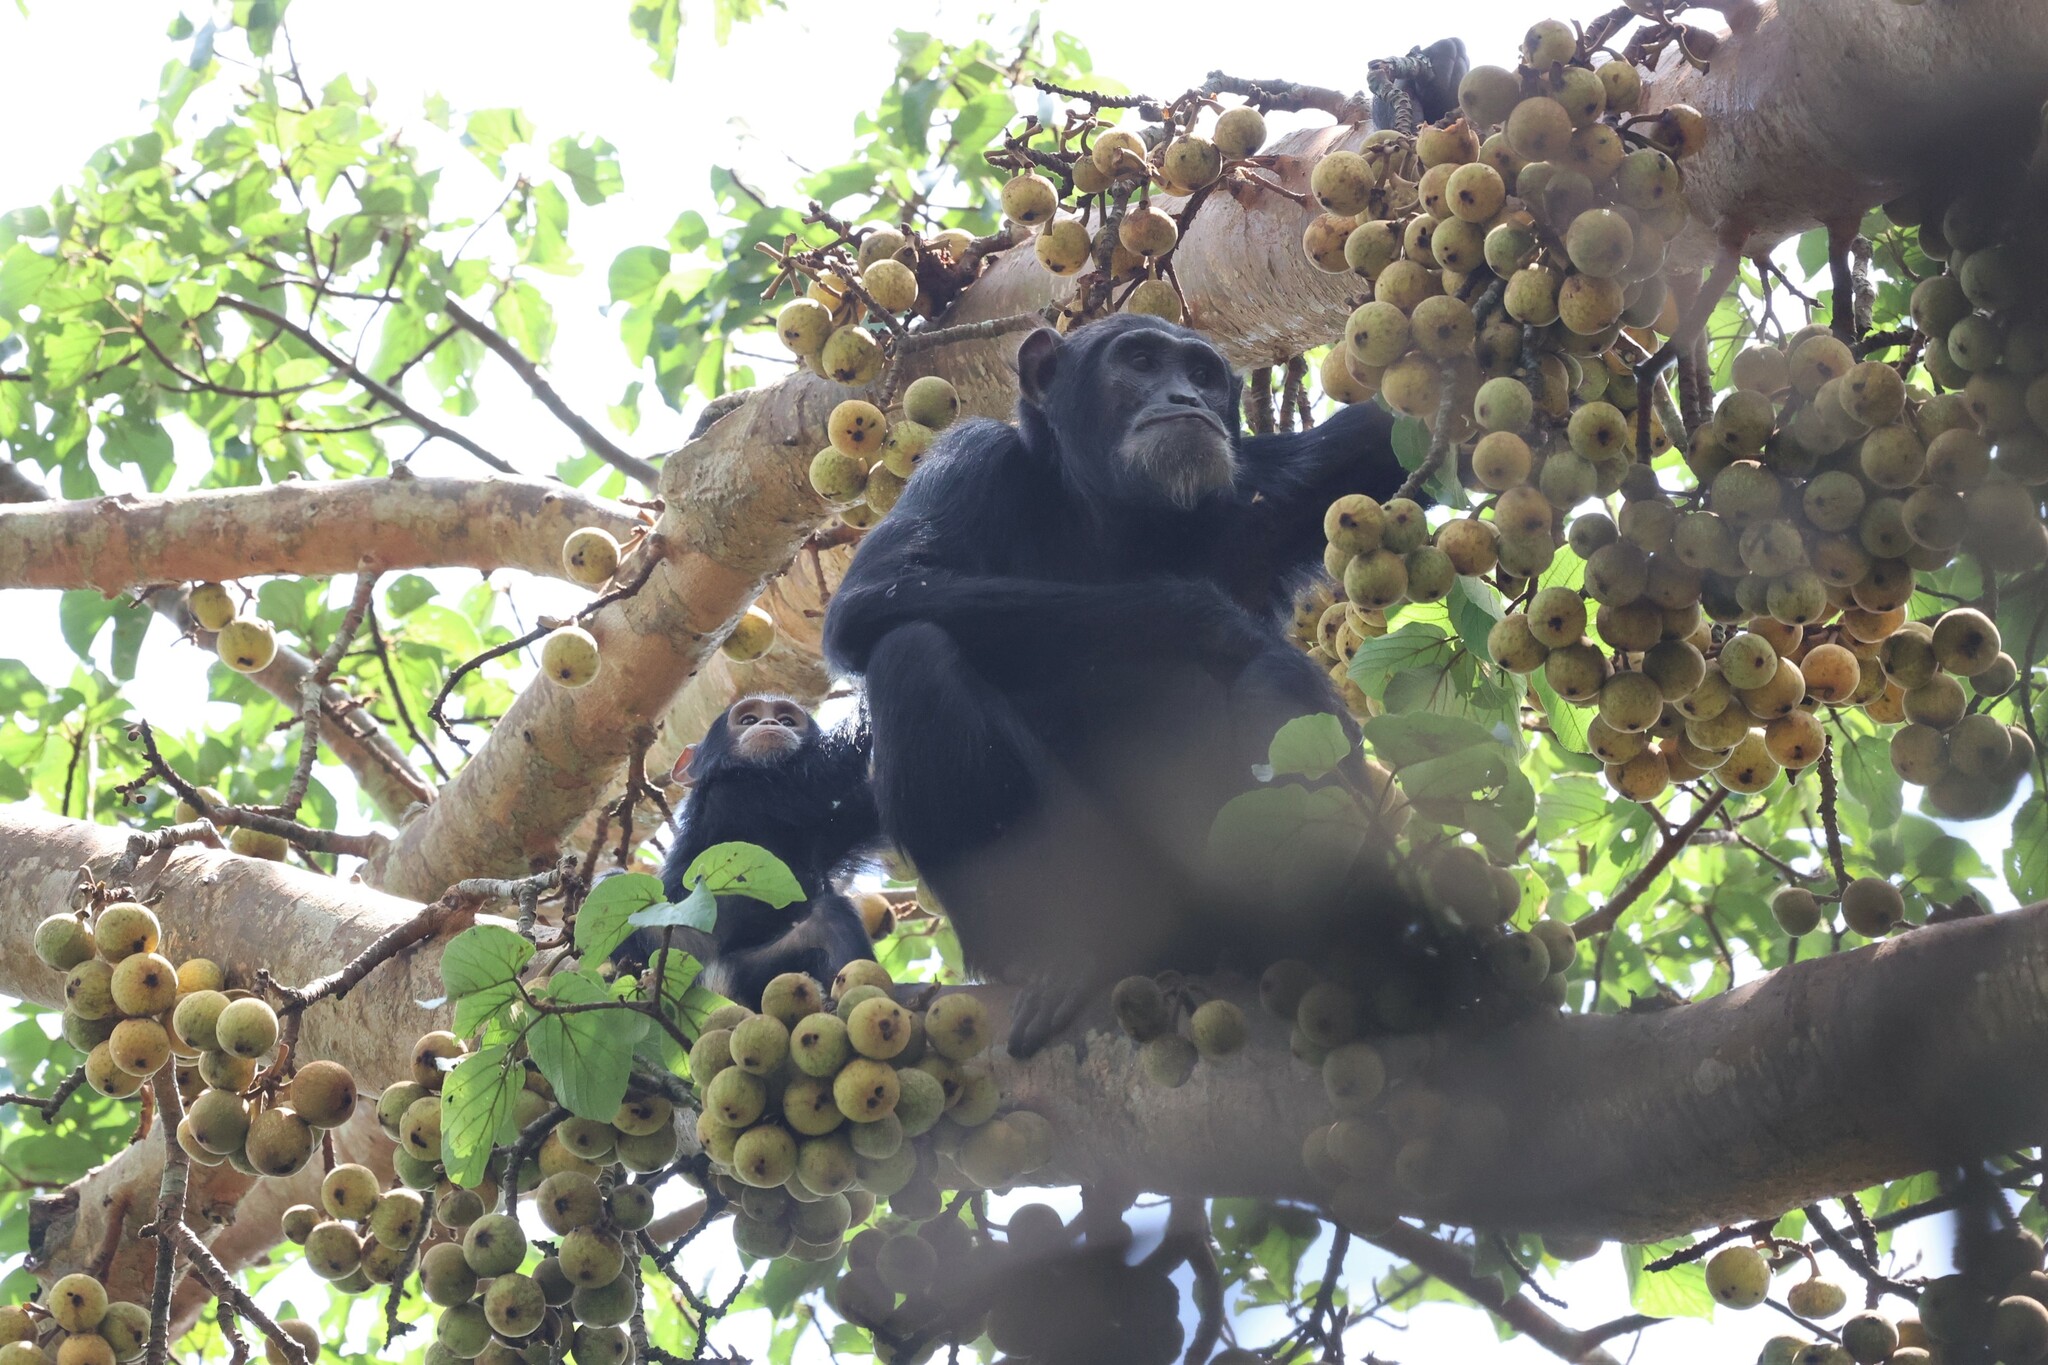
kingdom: Animalia
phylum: Chordata
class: Mammalia
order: Primates
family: Hominidae
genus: Pan
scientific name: Pan troglodytes
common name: Chimpanzee
